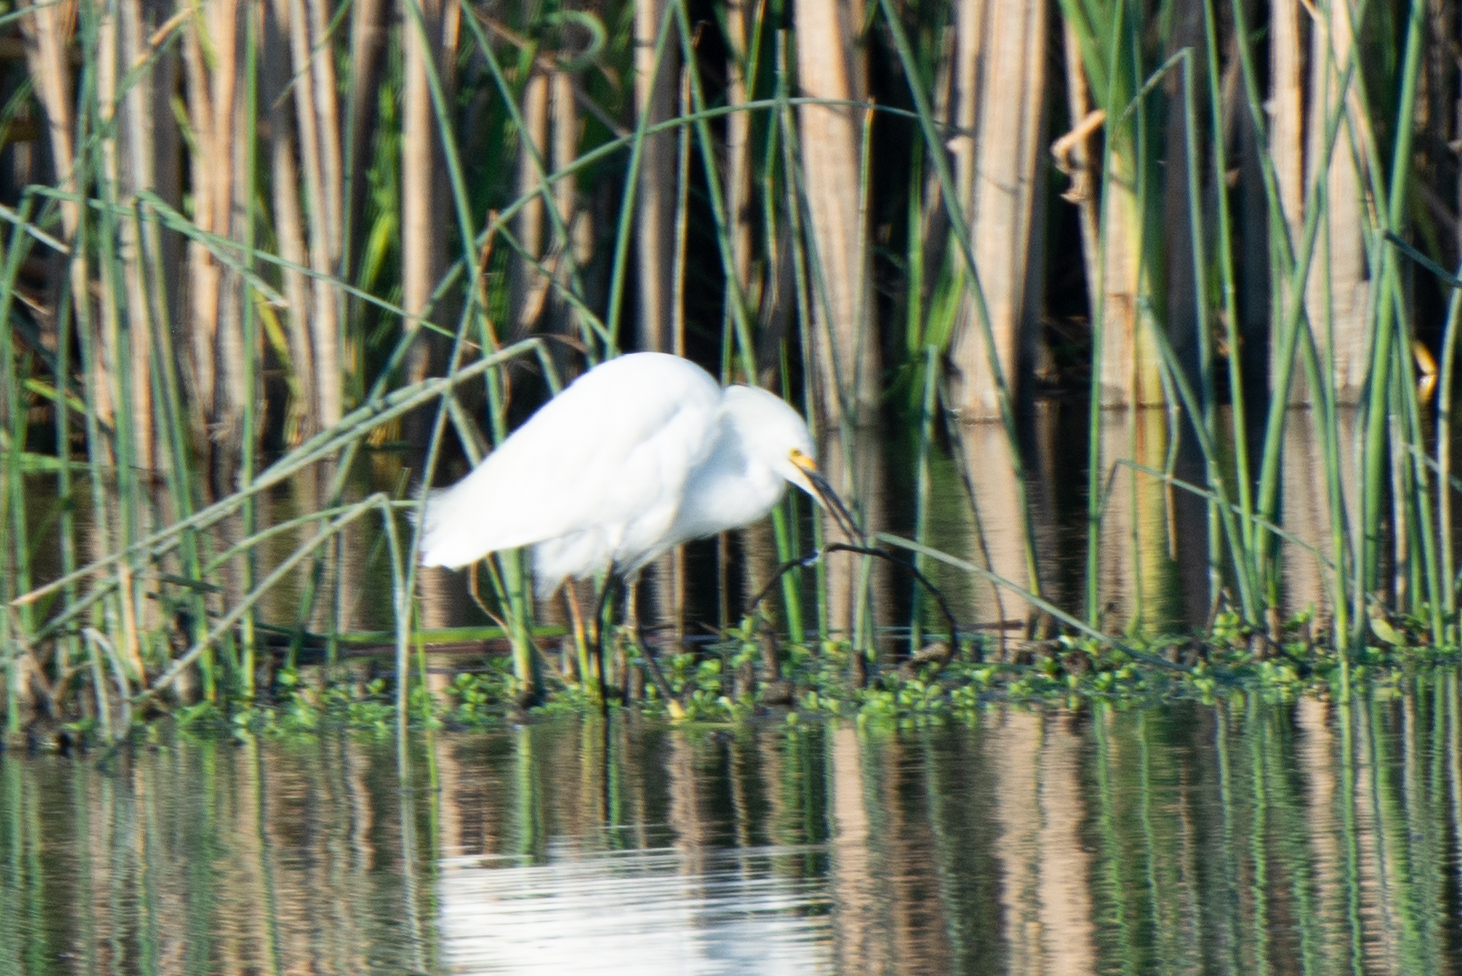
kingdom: Animalia
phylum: Chordata
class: Aves
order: Pelecaniformes
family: Ardeidae
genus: Egretta
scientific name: Egretta thula
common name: Snowy egret
